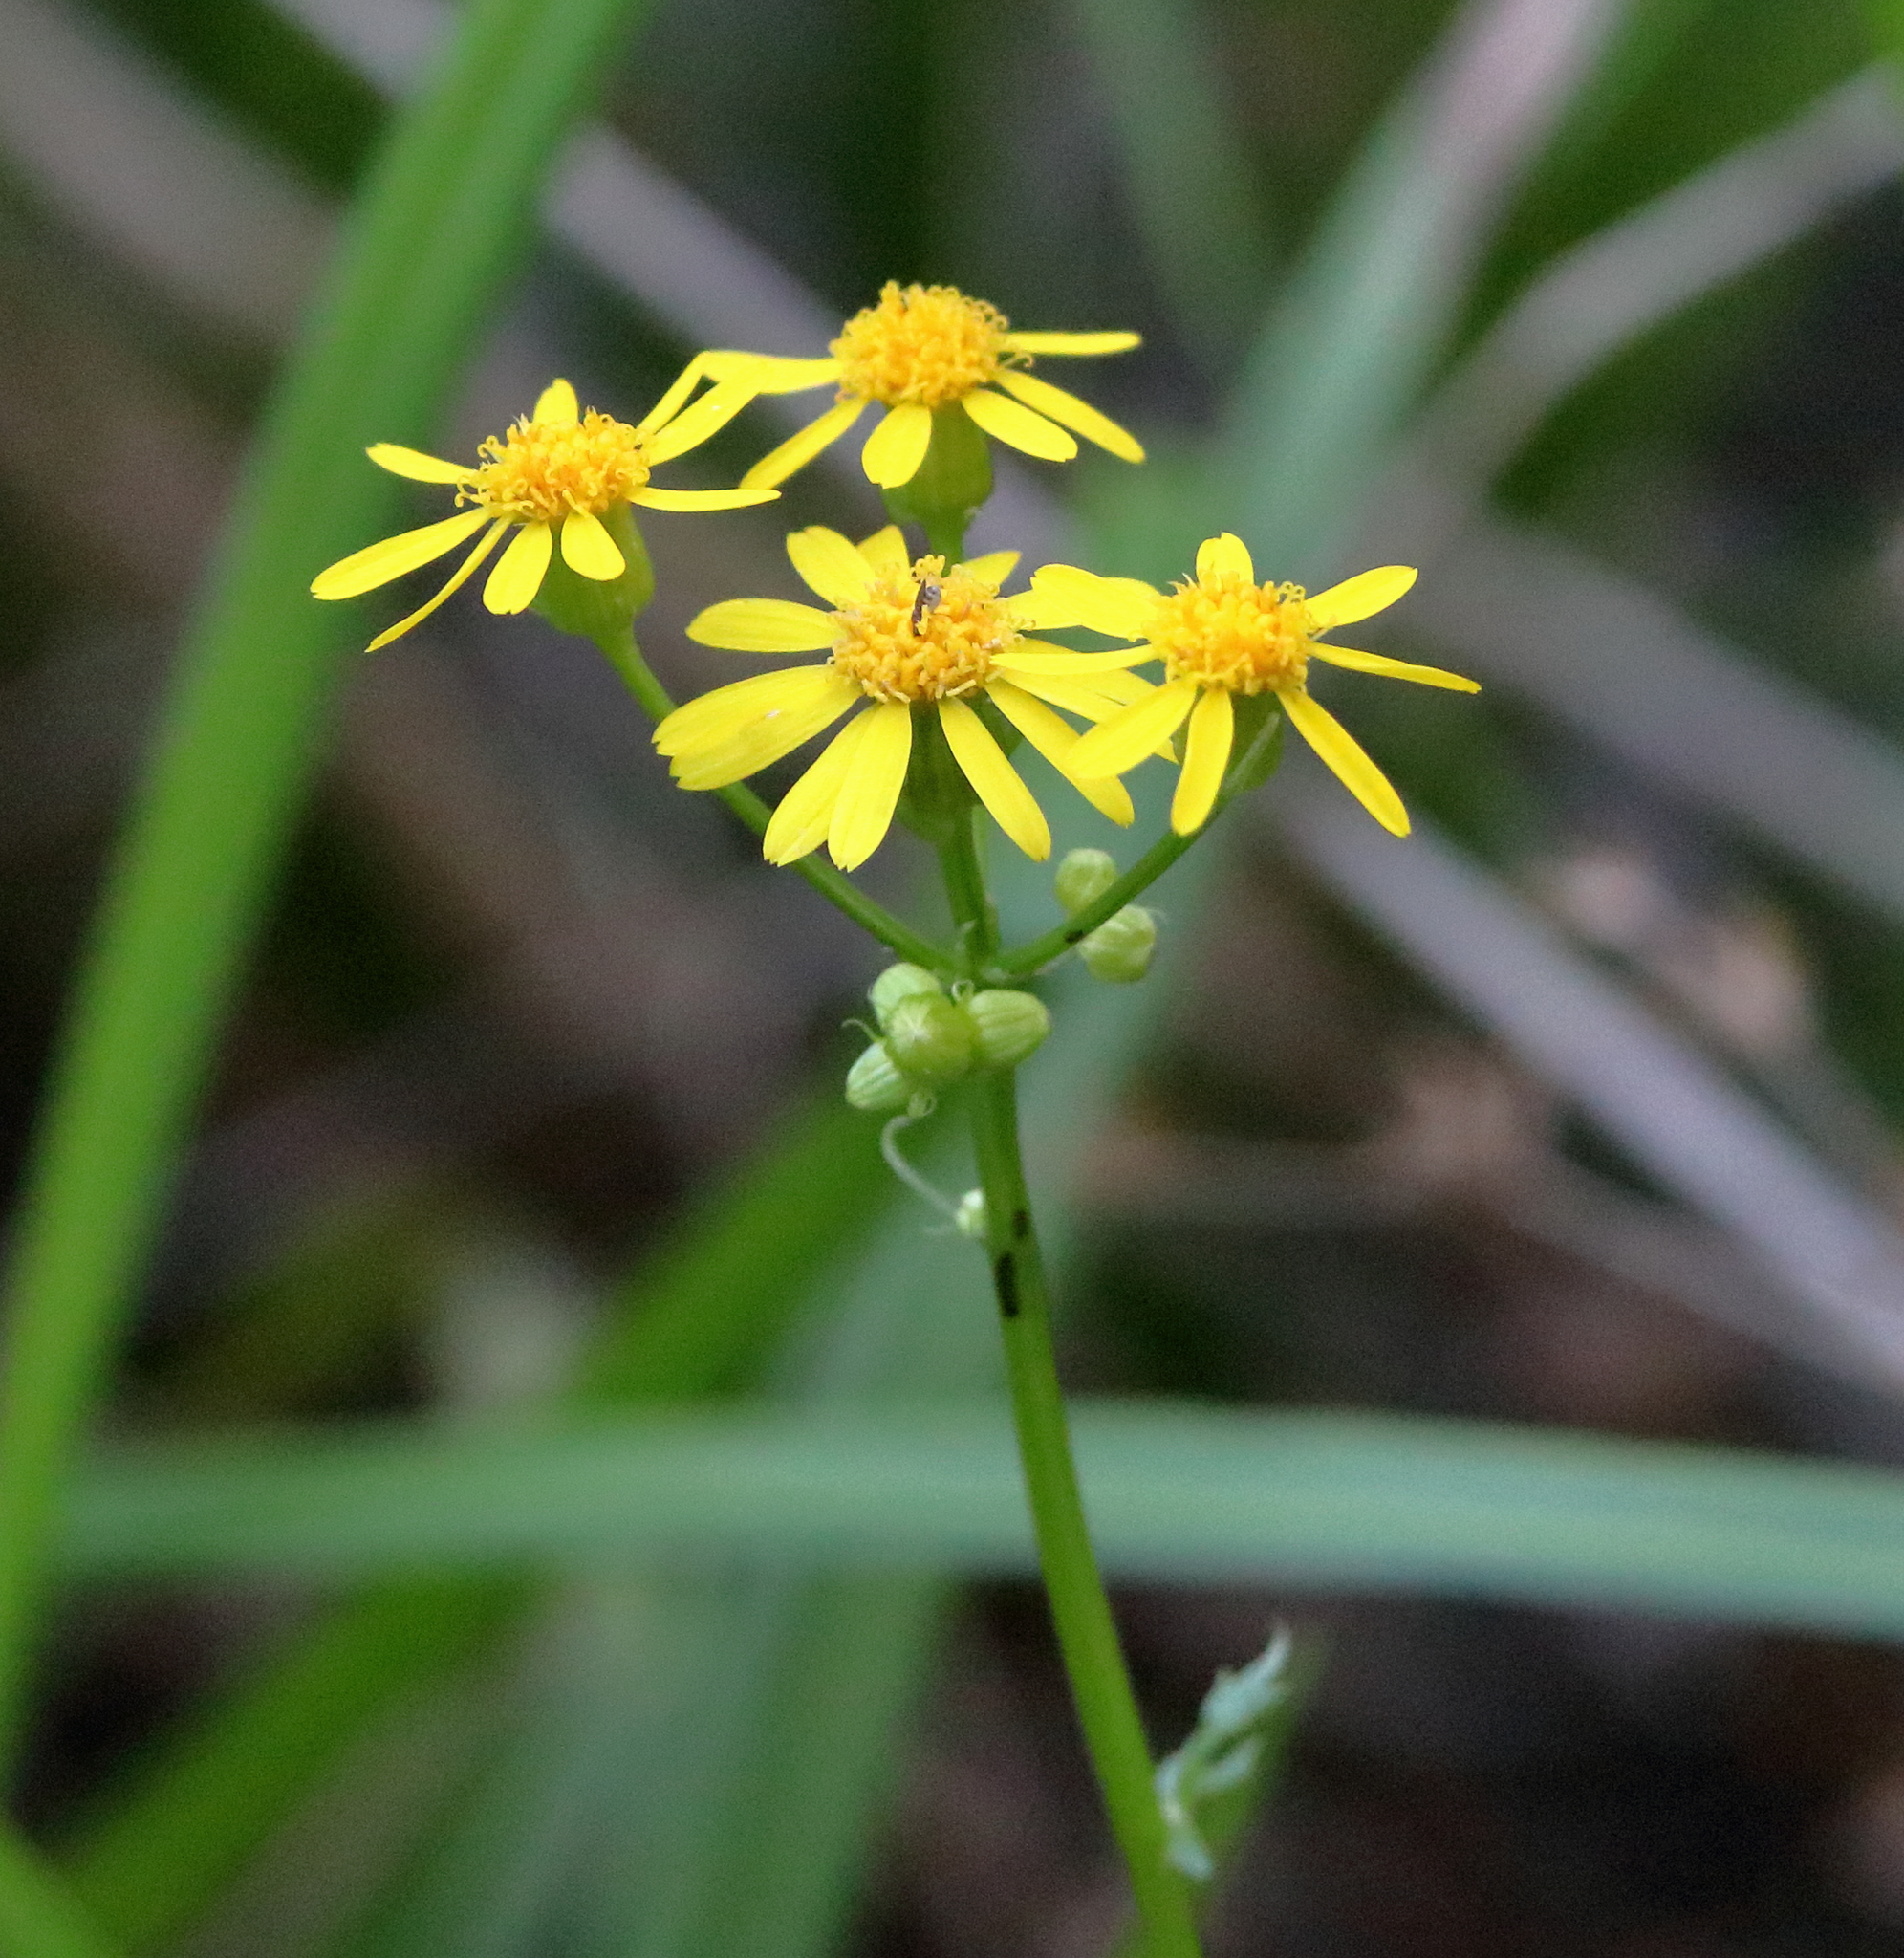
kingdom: Plantae
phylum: Tracheophyta
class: Magnoliopsida
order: Asterales
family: Asteraceae
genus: Packera
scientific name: Packera glabella
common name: Butterweed
